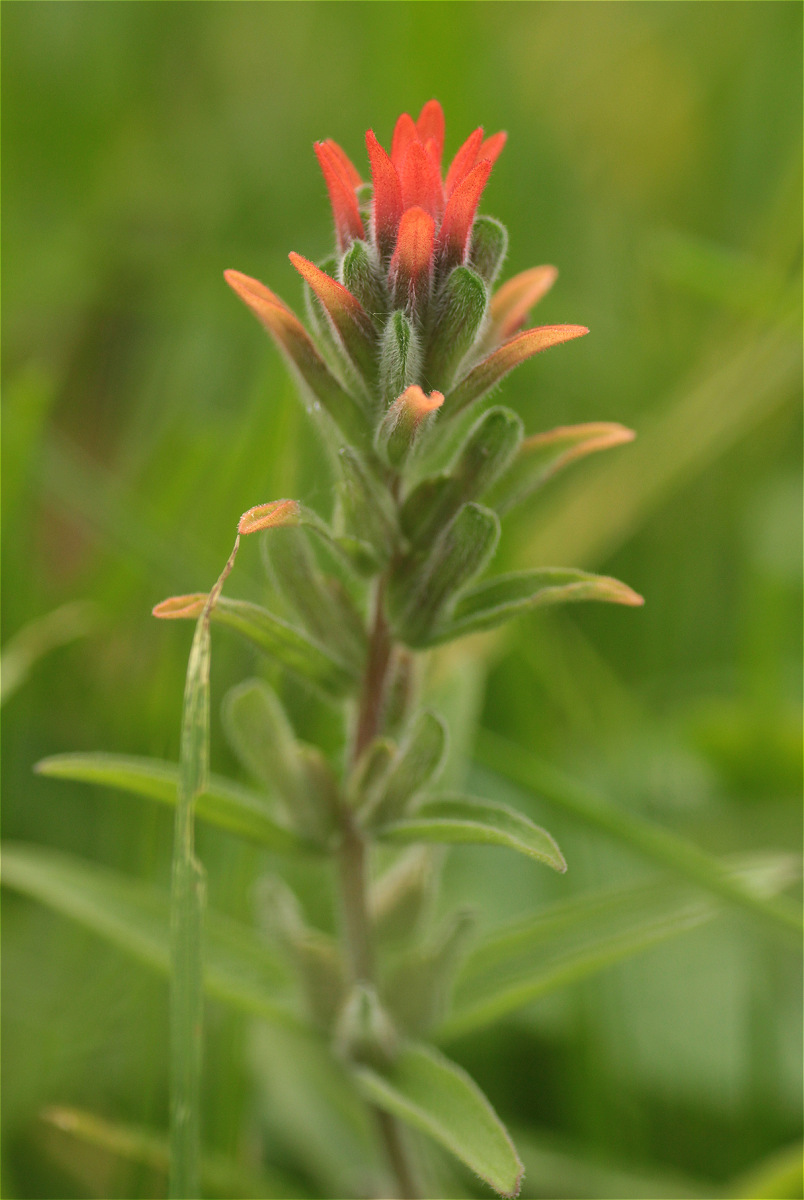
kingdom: Plantae
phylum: Tracheophyta
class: Magnoliopsida
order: Lamiales
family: Orobanchaceae
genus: Castilleja
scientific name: Castilleja arvensis
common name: Indian paintbrush
